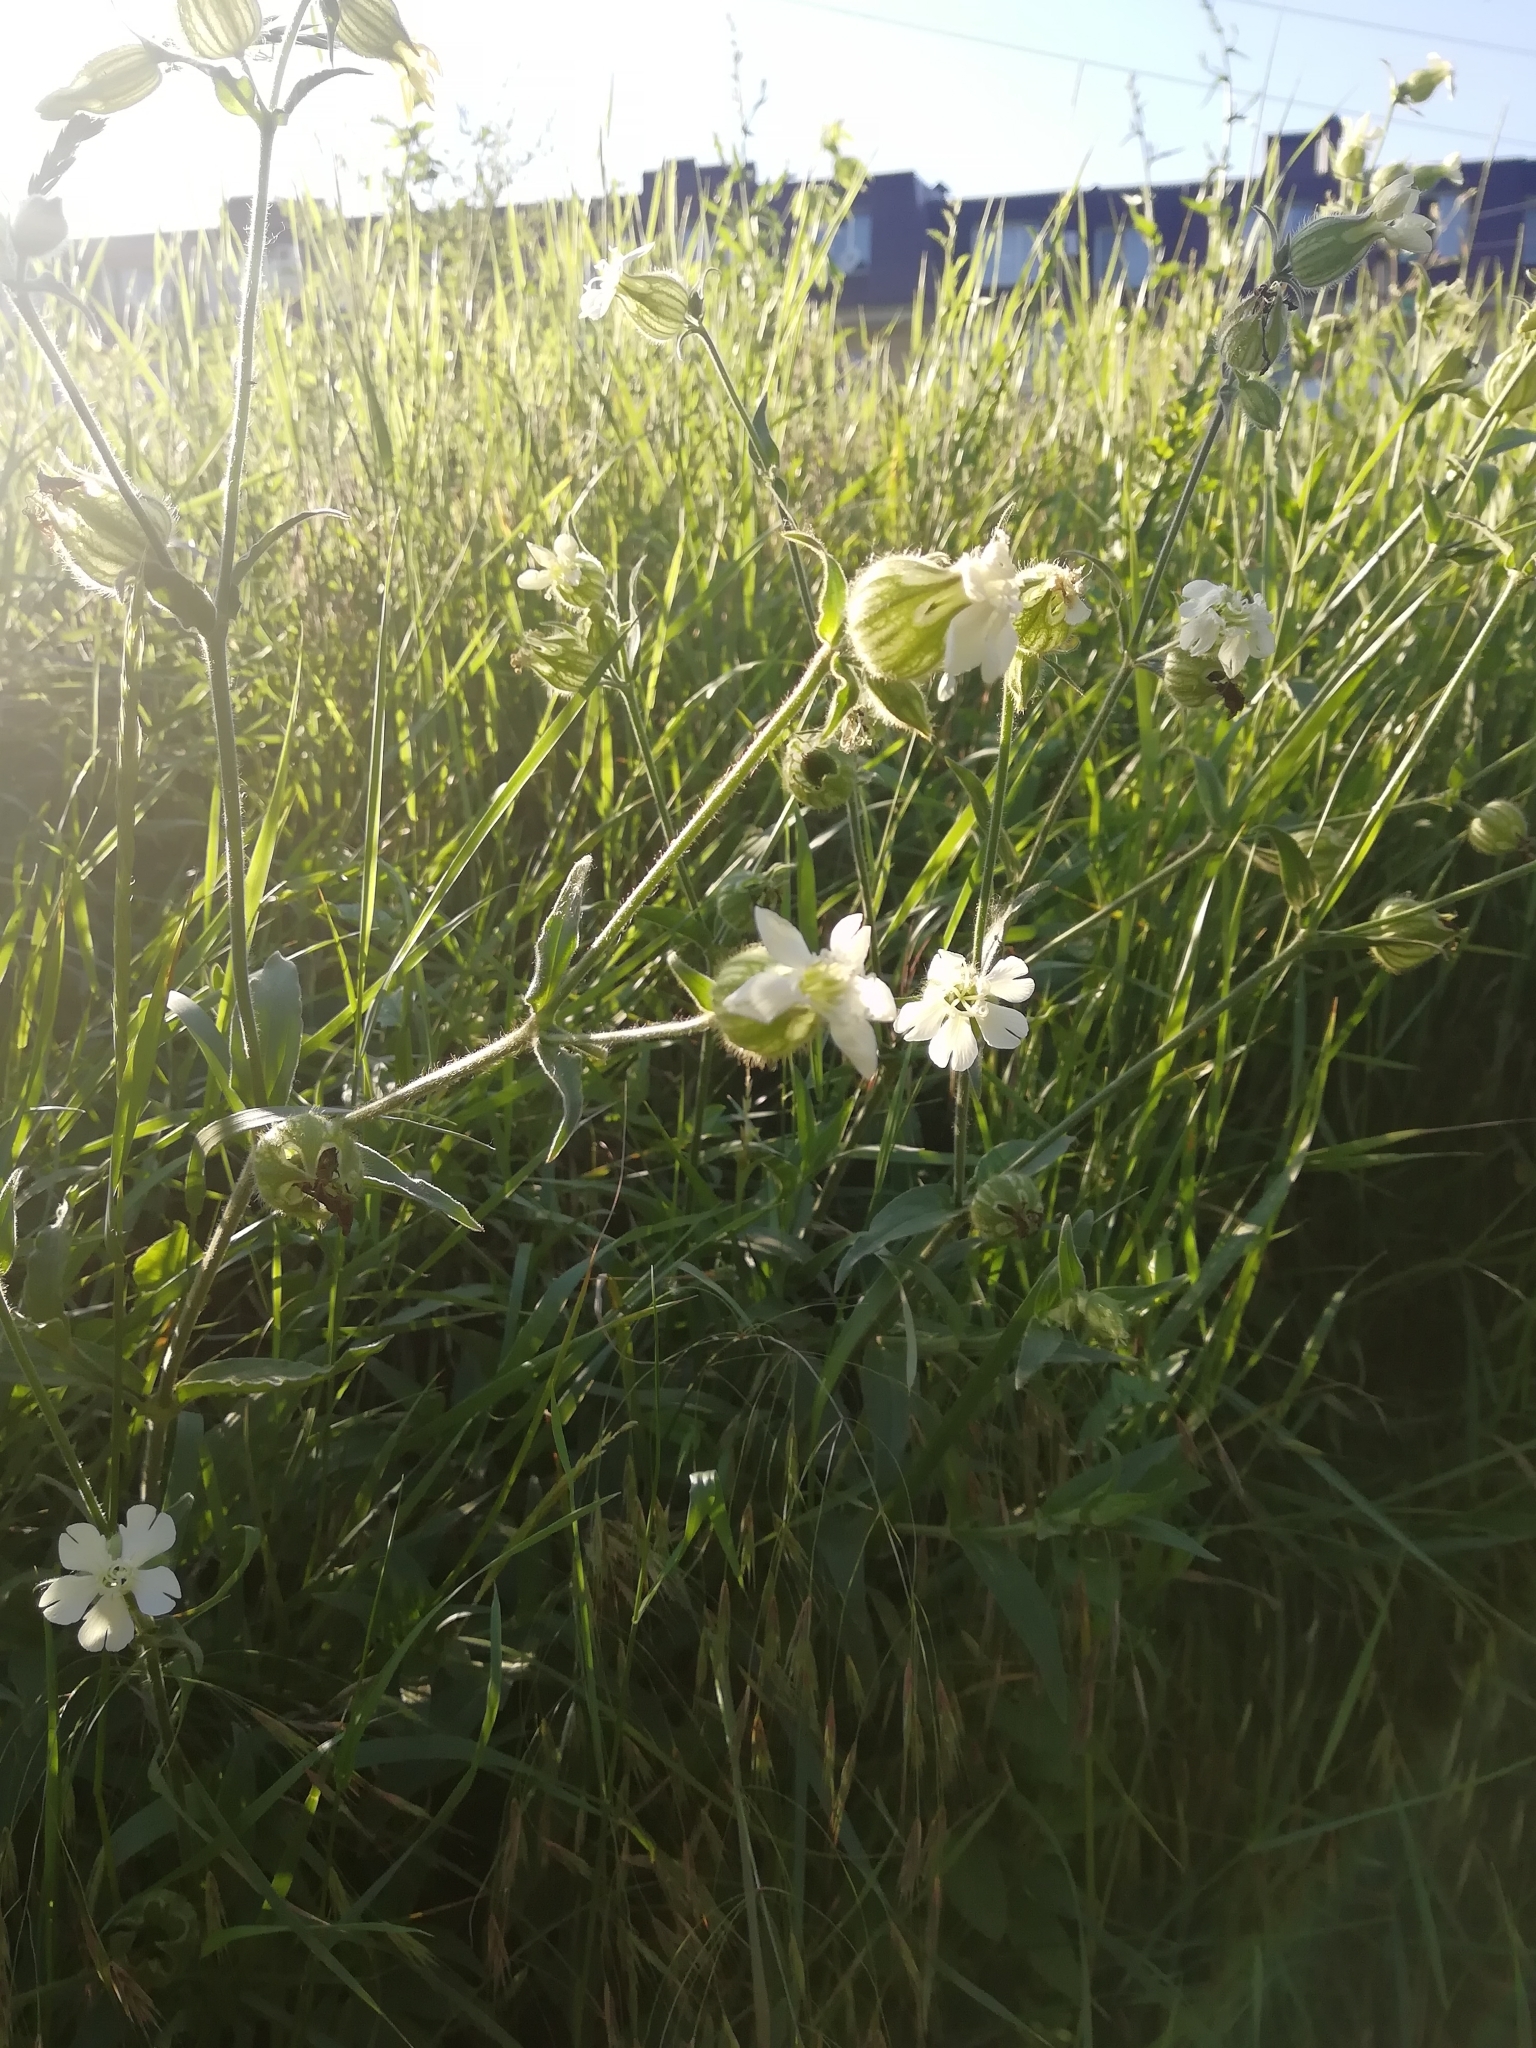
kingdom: Plantae
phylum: Tracheophyta
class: Magnoliopsida
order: Caryophyllales
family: Caryophyllaceae
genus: Silene
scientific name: Silene latifolia
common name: White campion
